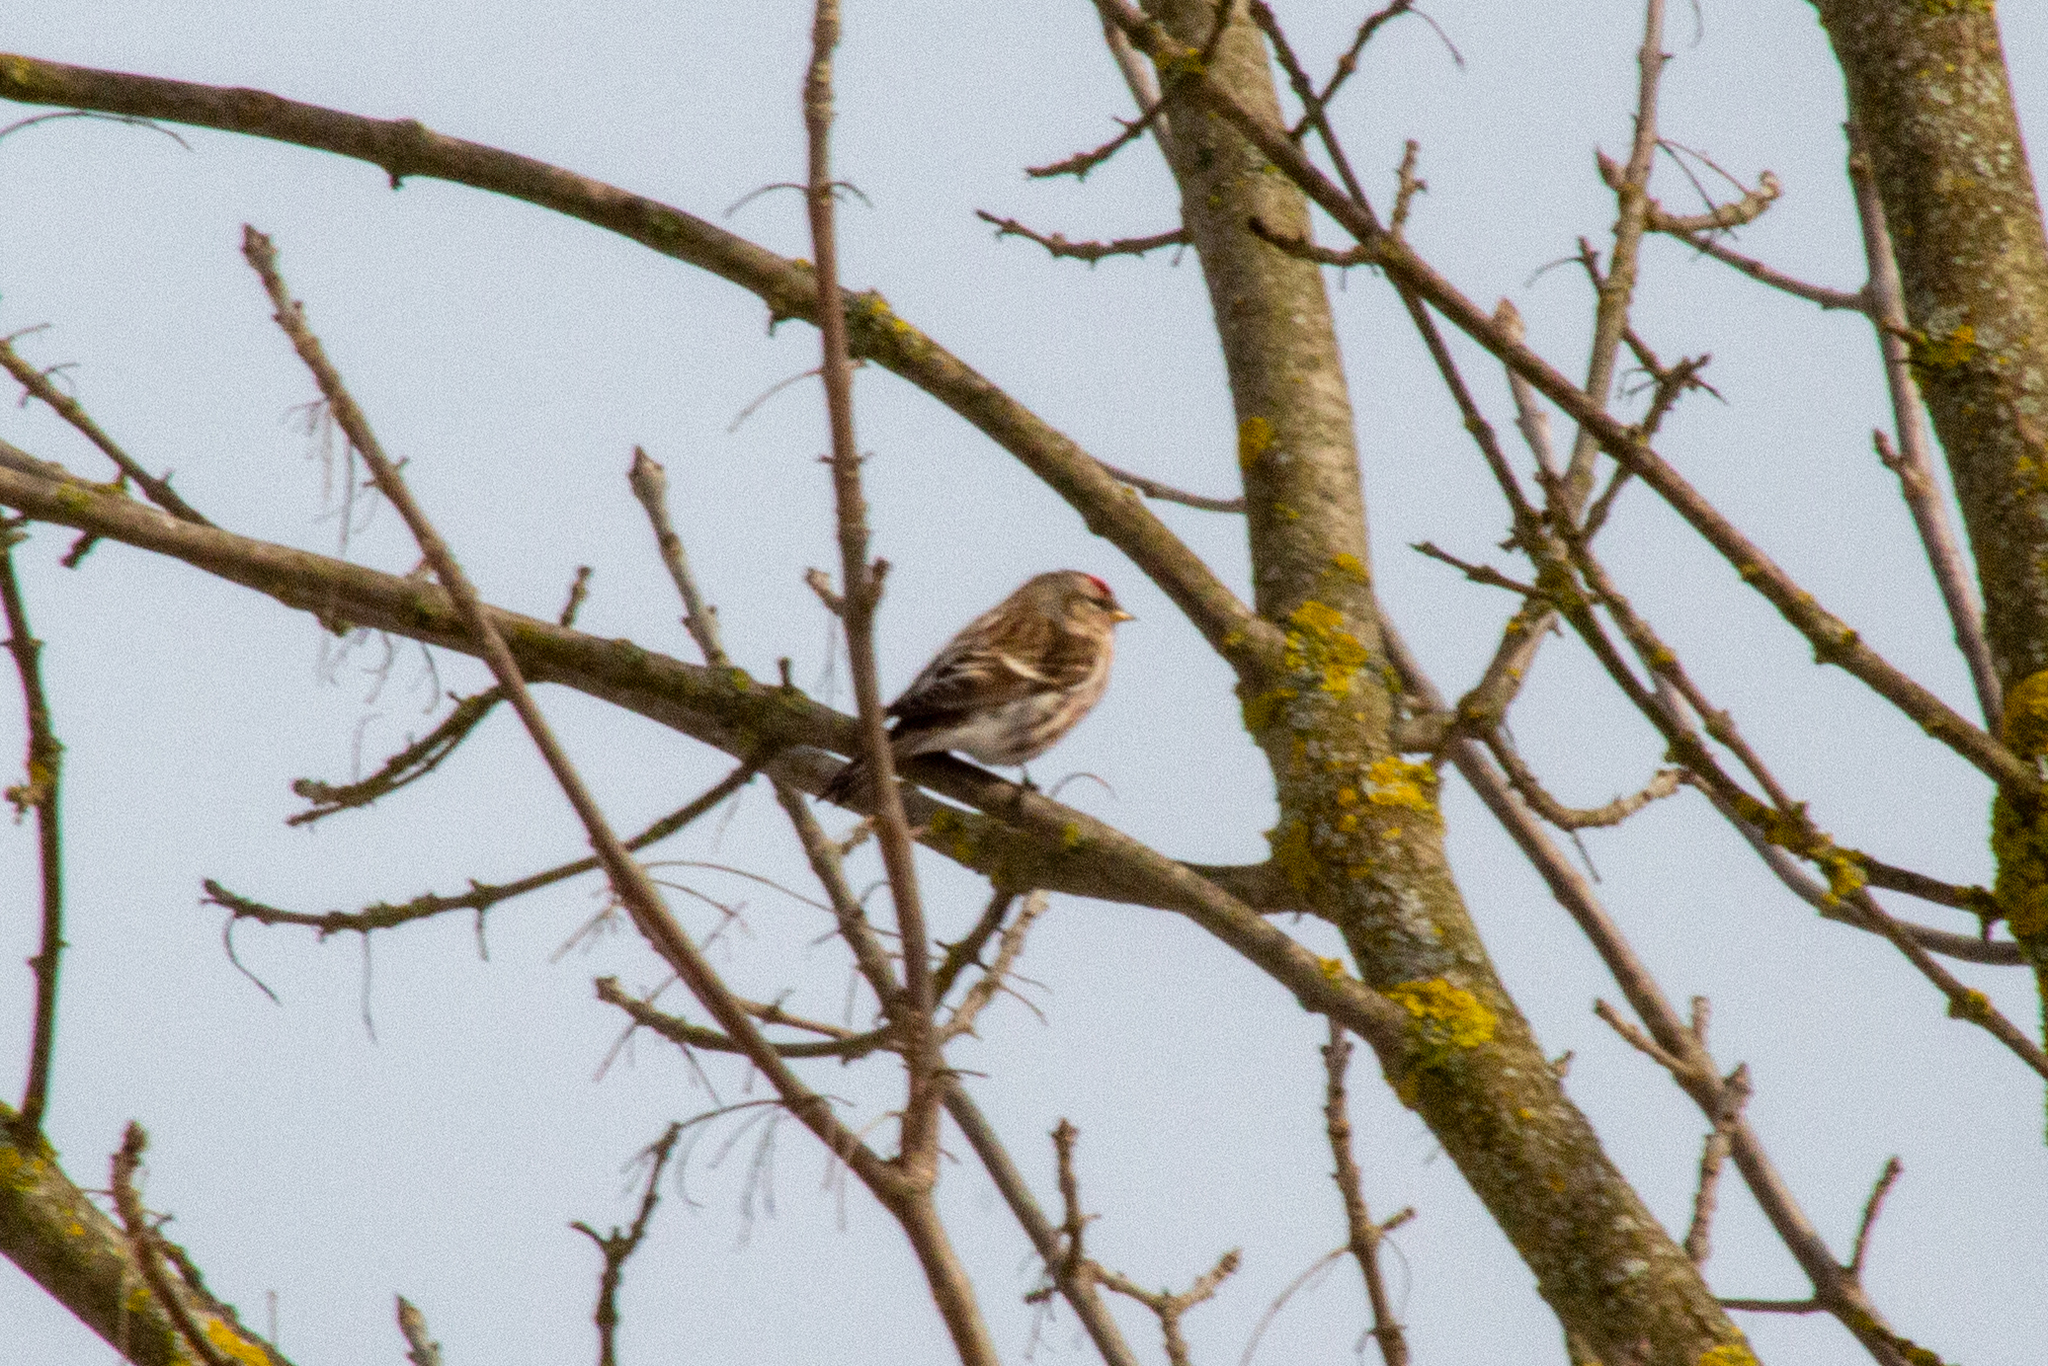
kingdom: Animalia
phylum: Chordata
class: Aves
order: Passeriformes
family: Fringillidae
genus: Acanthis
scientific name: Acanthis flammea
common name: Common redpoll
